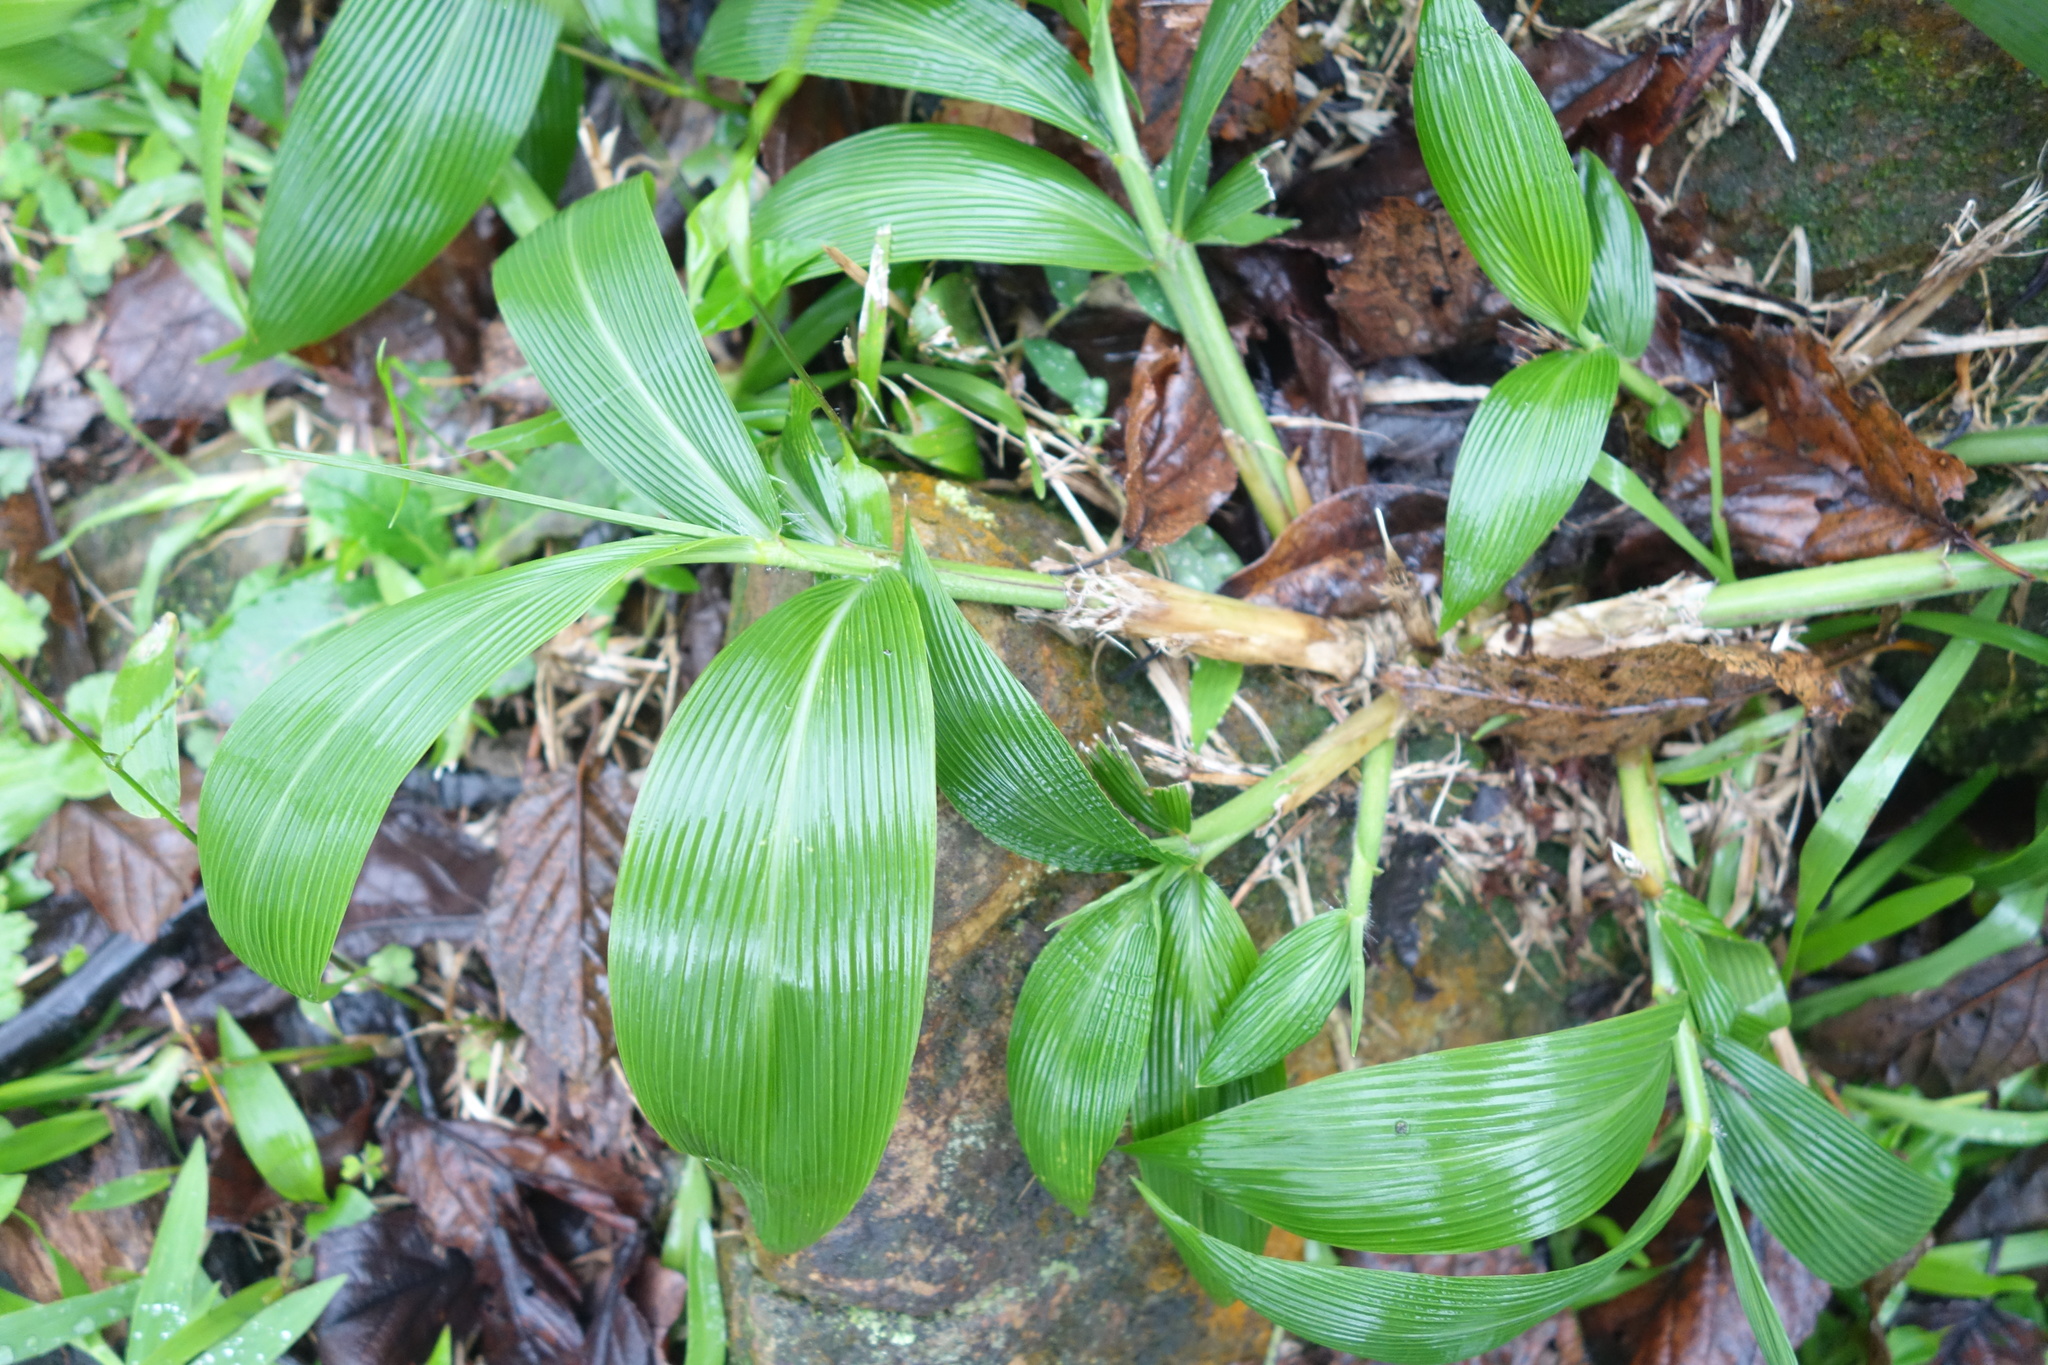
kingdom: Plantae
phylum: Tracheophyta
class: Liliopsida
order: Poales
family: Poaceae
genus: Setaria
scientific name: Setaria palmifolia
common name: Broadleaved bristlegrass
